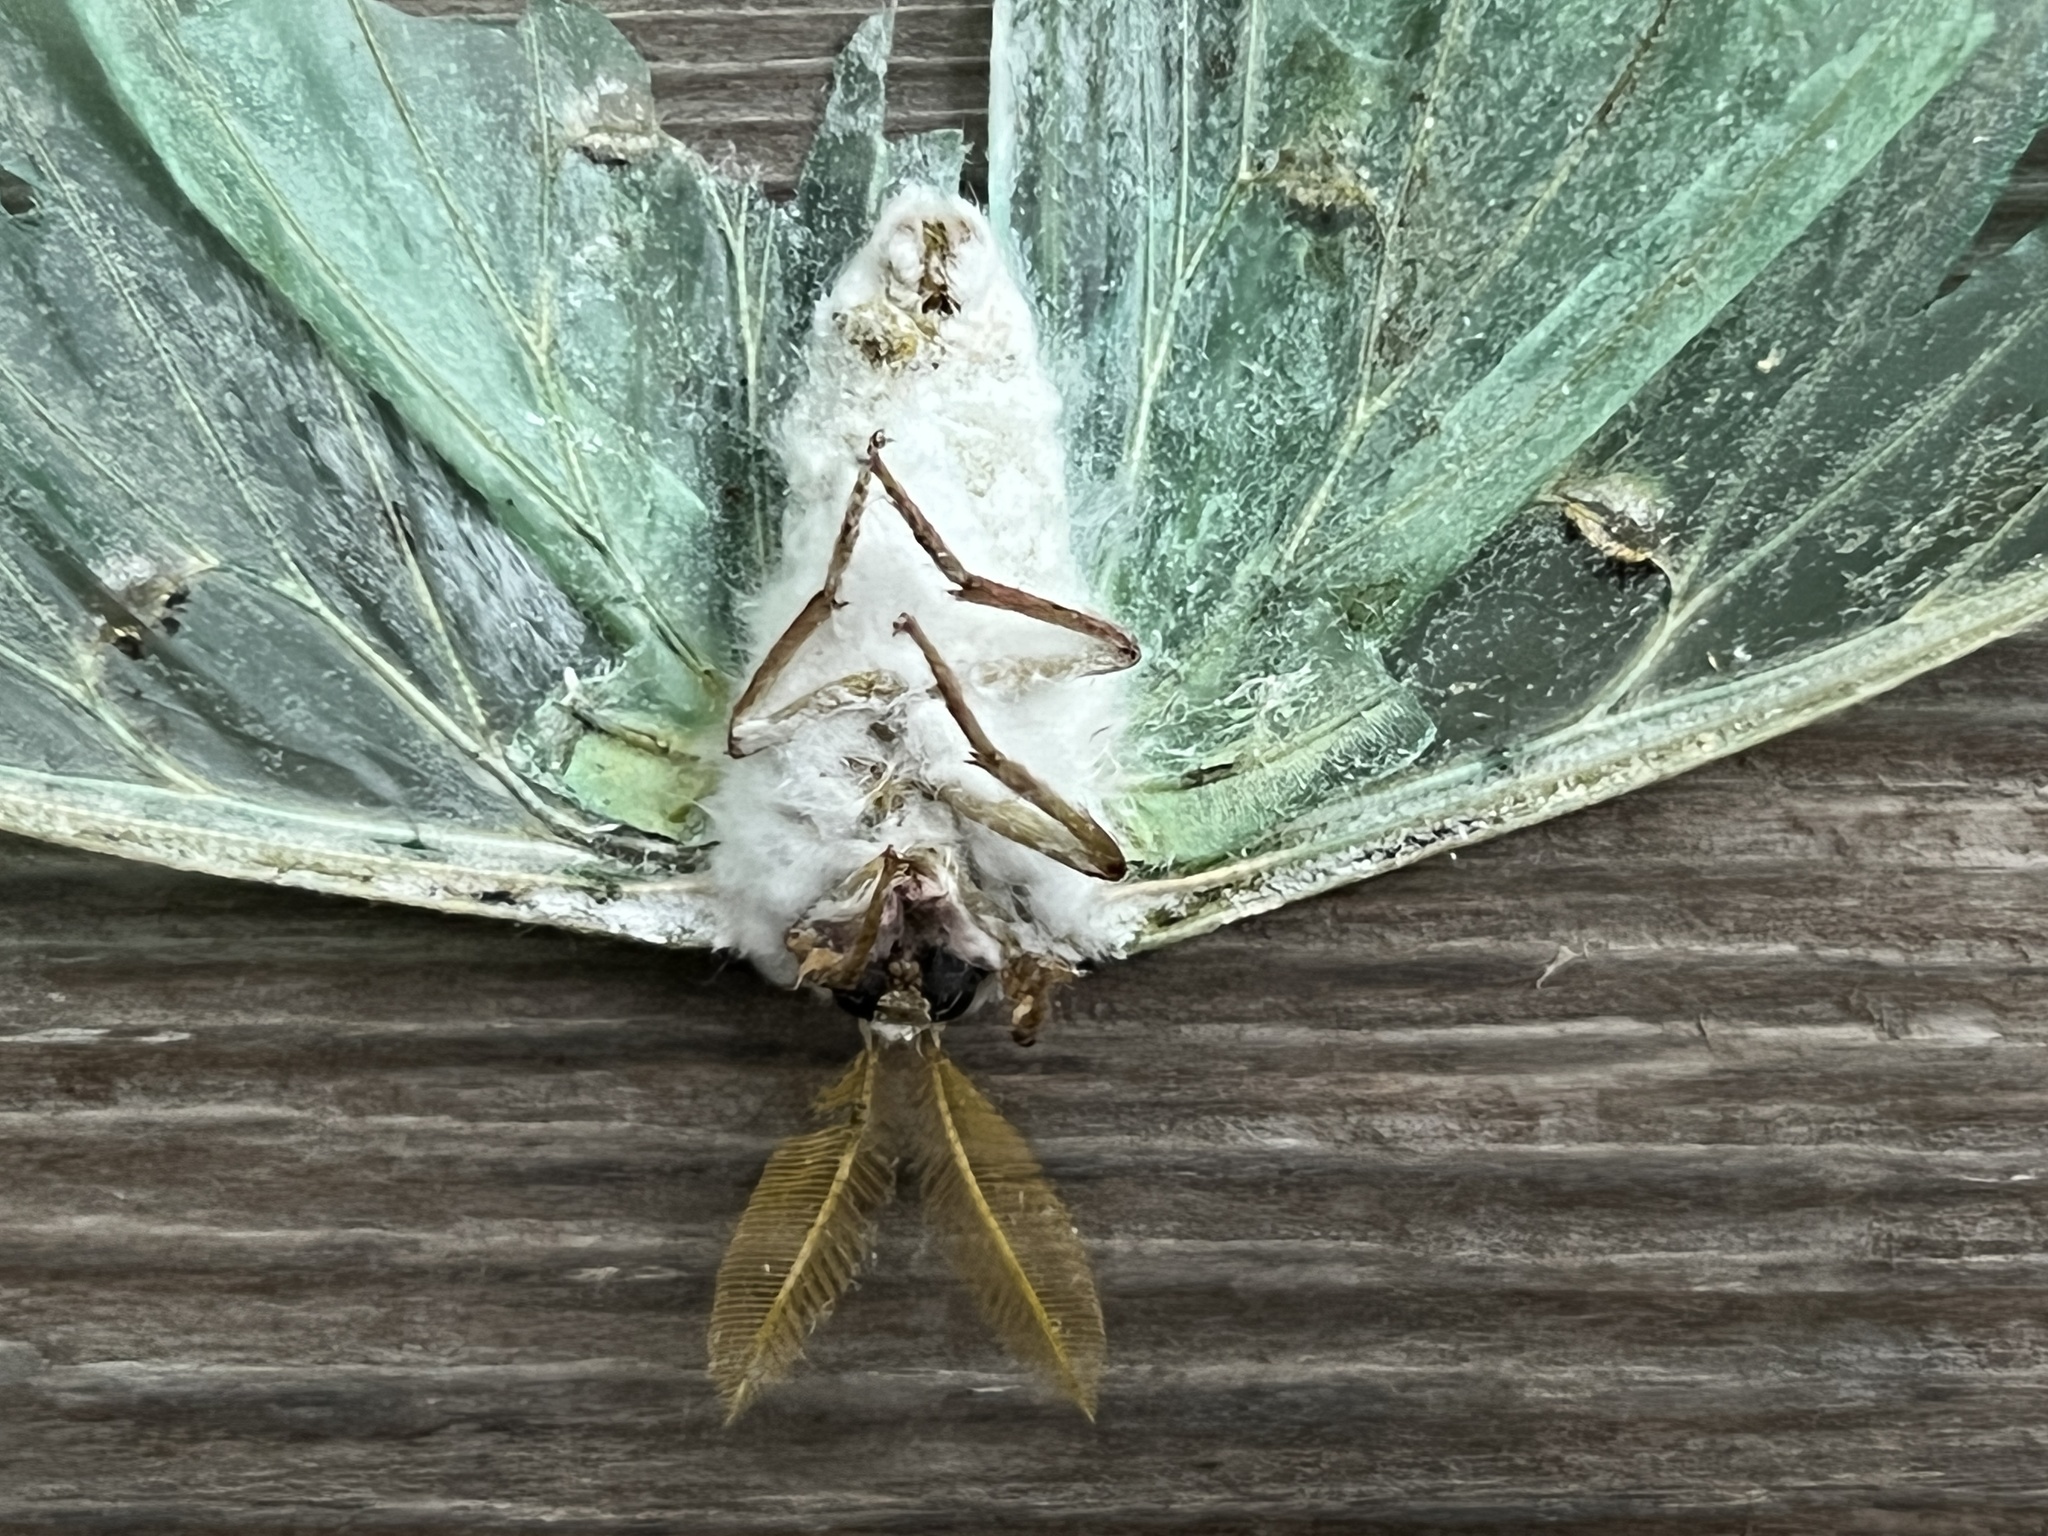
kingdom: Fungi
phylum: Ascomycota
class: Sordariomycetes
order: Hypocreales
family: Cordycipitaceae
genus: Beauveria
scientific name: Beauveria bassiana
